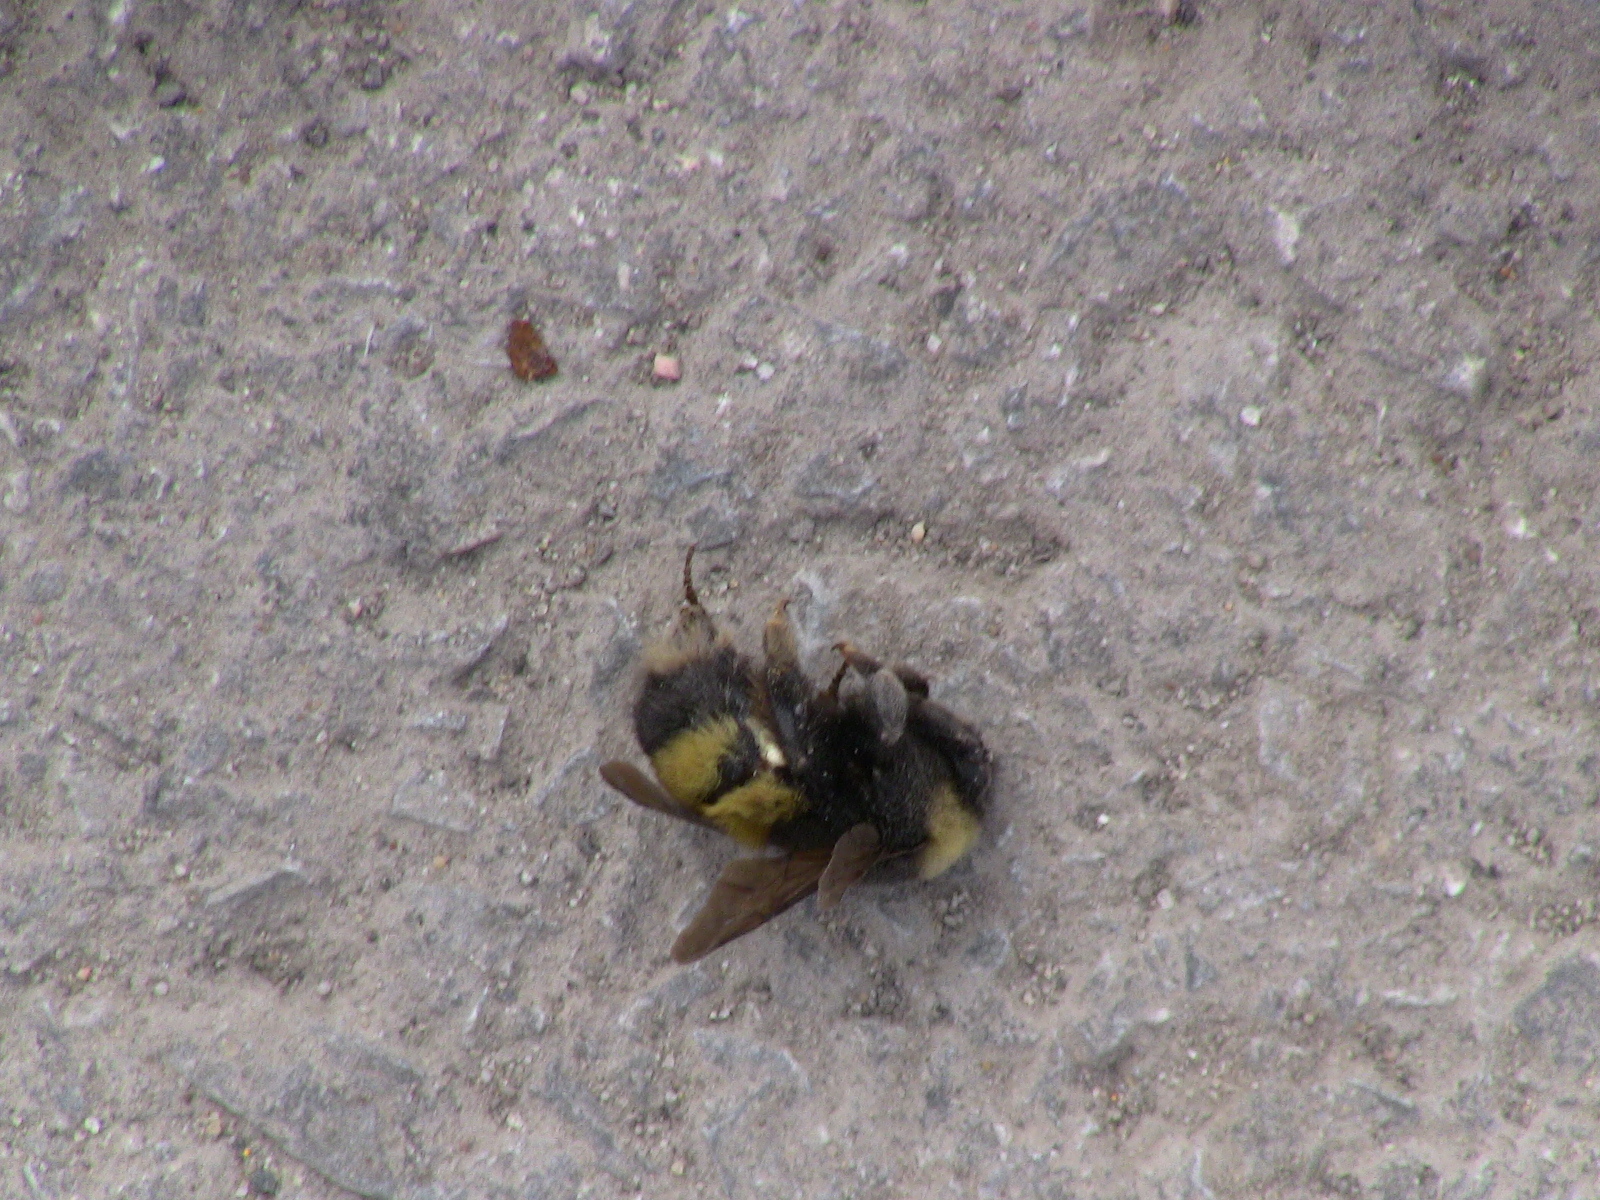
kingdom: Animalia
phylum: Arthropoda
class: Insecta
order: Hymenoptera
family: Apidae
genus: Bombus
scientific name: Bombus terricola
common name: Yellow-banded bumble bee
